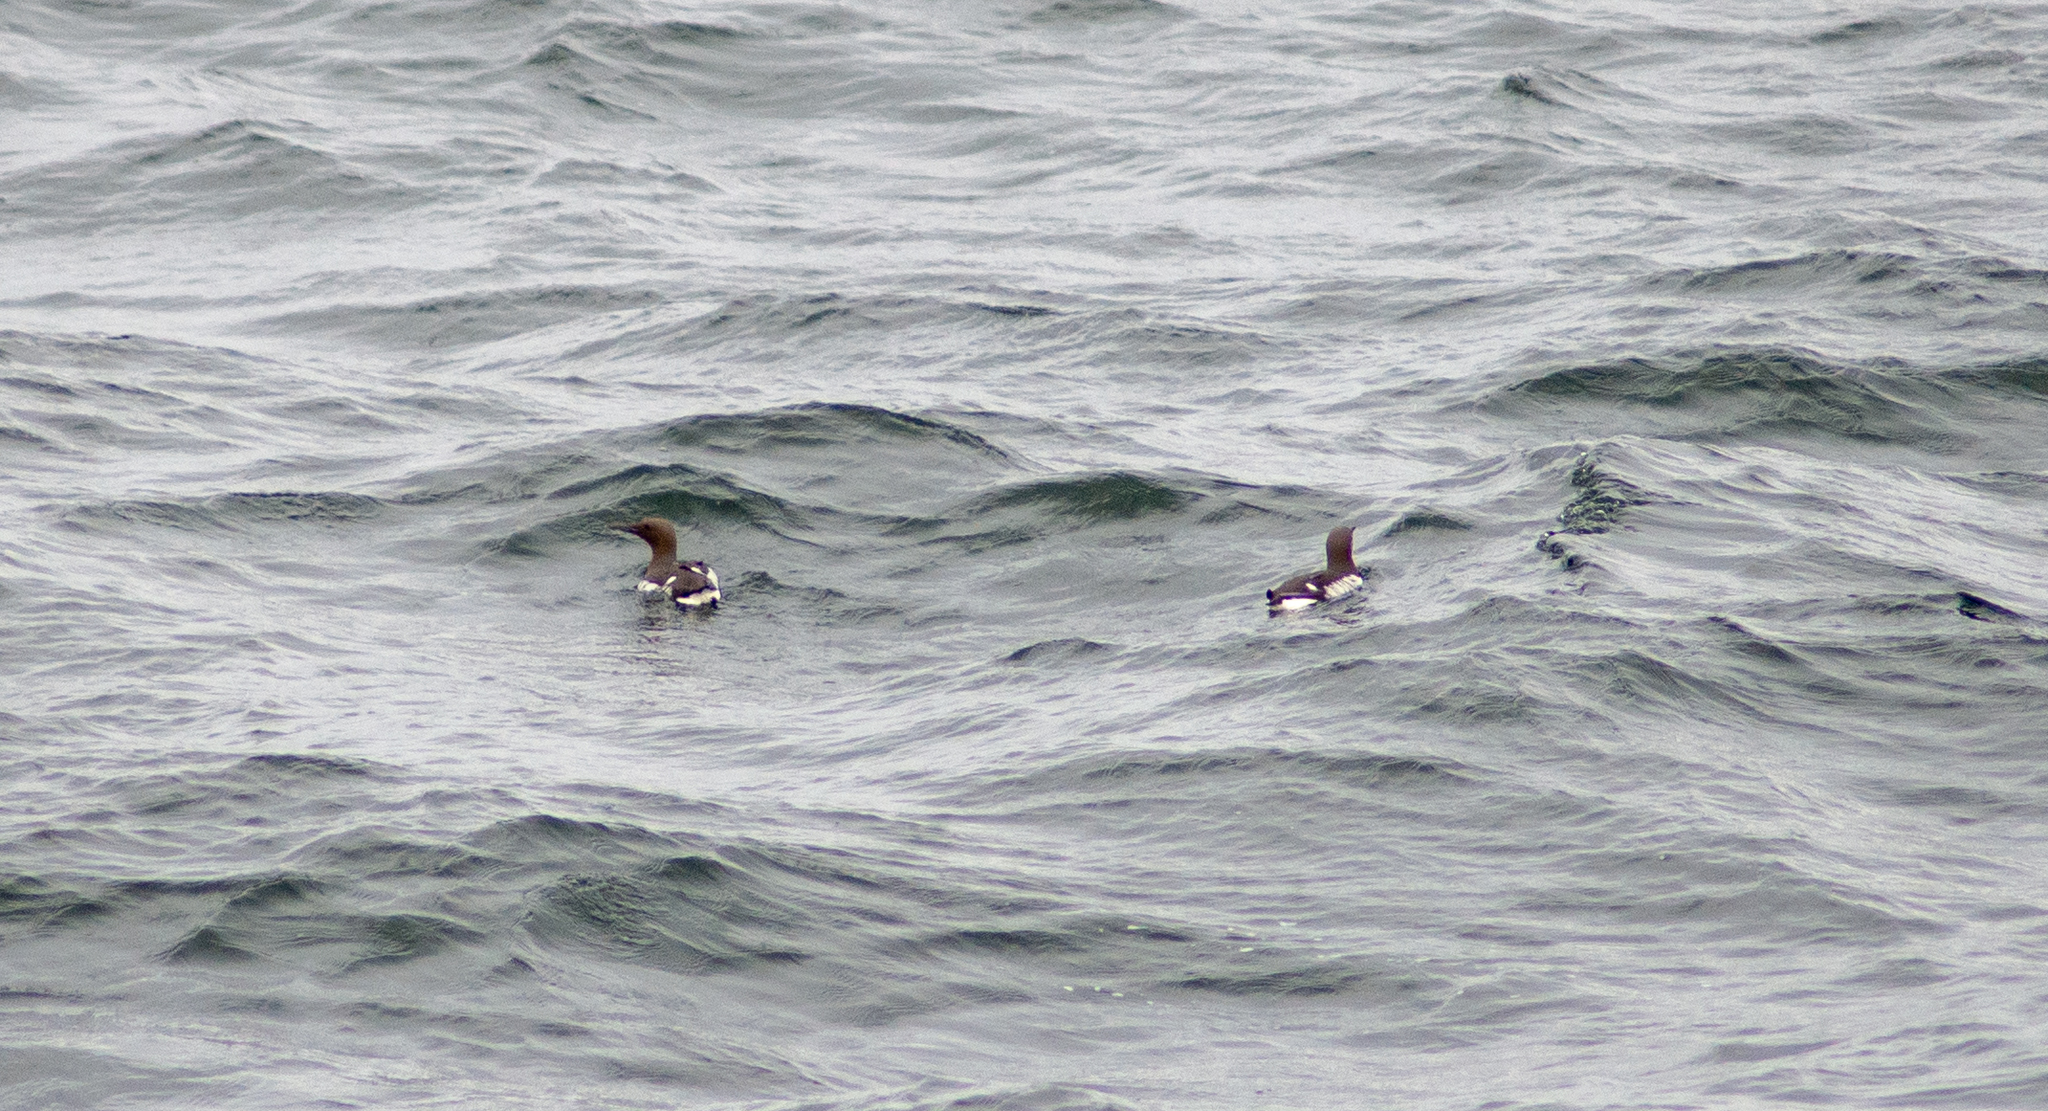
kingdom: Animalia
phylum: Chordata
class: Aves
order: Charadriiformes
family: Alcidae
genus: Uria
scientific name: Uria aalge
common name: Common murre
